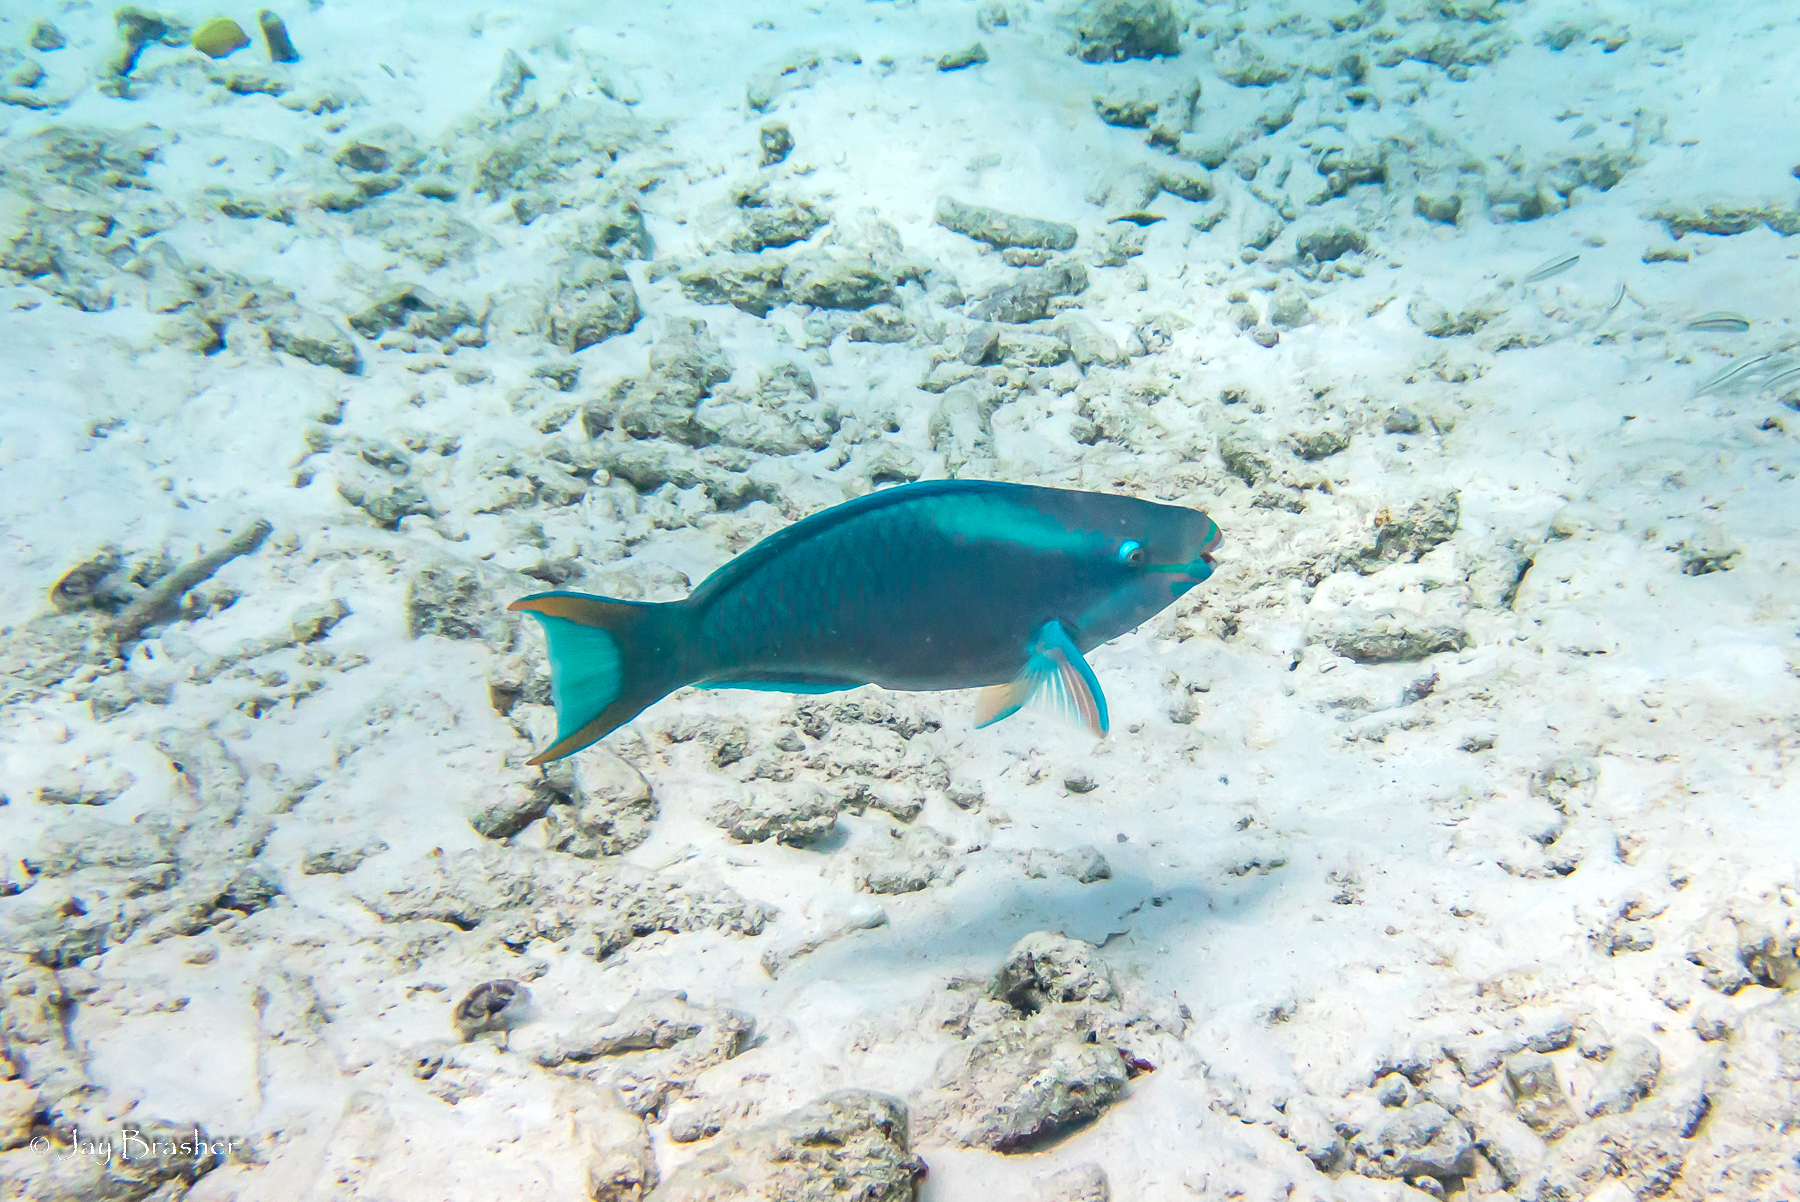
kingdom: Animalia
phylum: Chordata
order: Perciformes
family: Scaridae
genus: Scarus
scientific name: Scarus vetula
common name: Queen parrotfish
